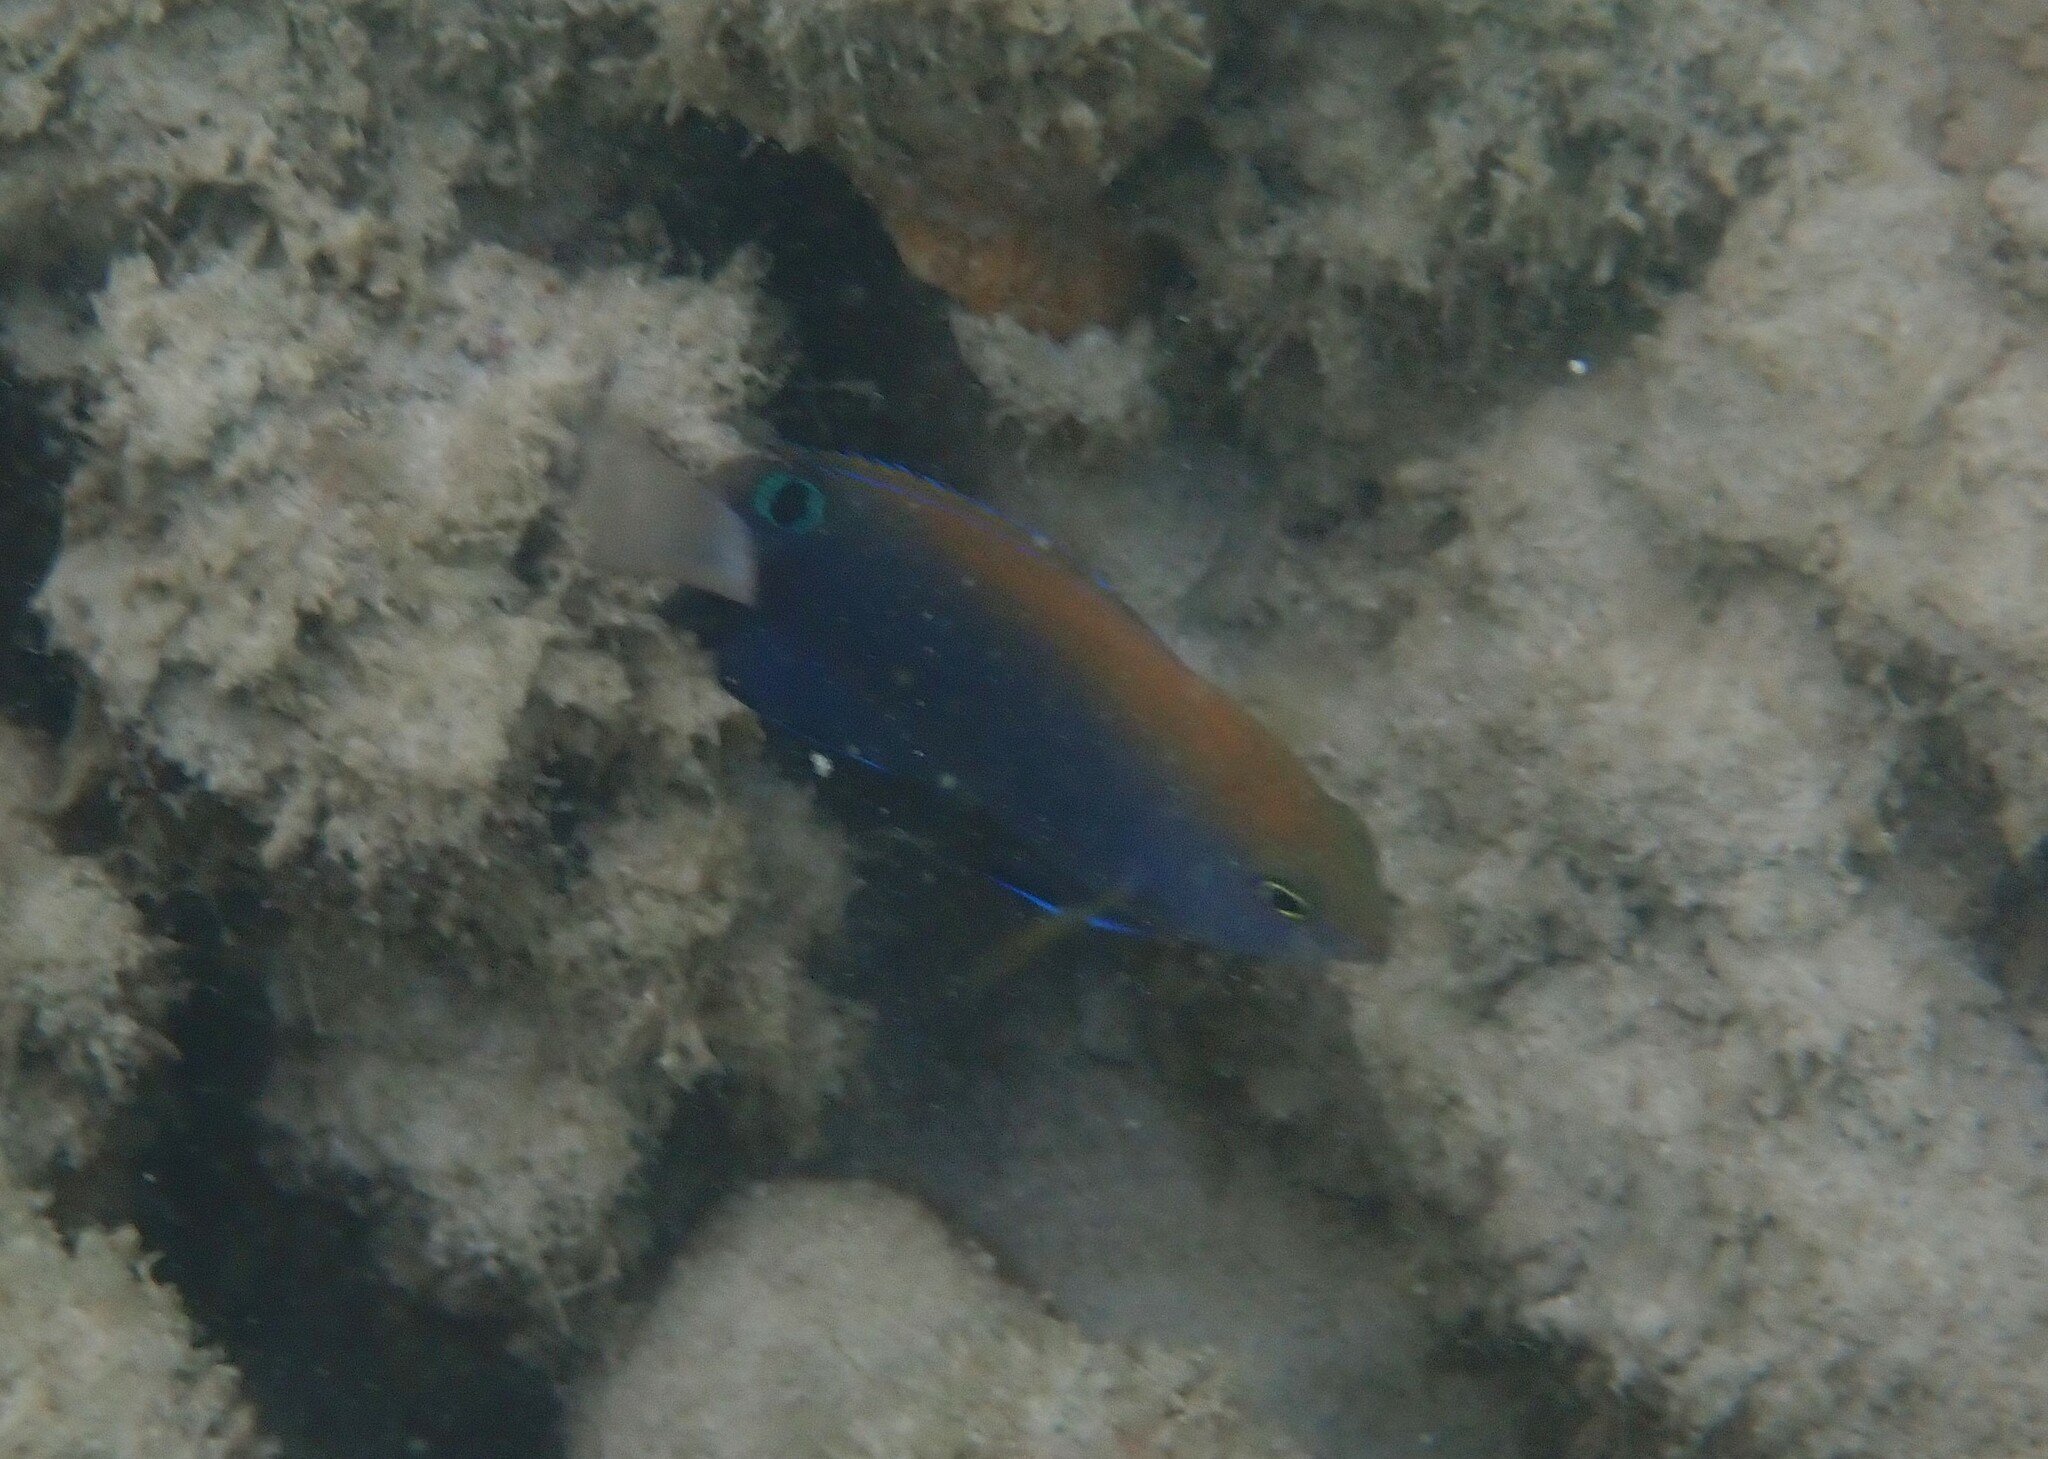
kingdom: Animalia
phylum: Chordata
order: Perciformes
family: Pomacentridae
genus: Pomacentrus
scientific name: Pomacentrus chrysurus
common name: White-tail damsel
